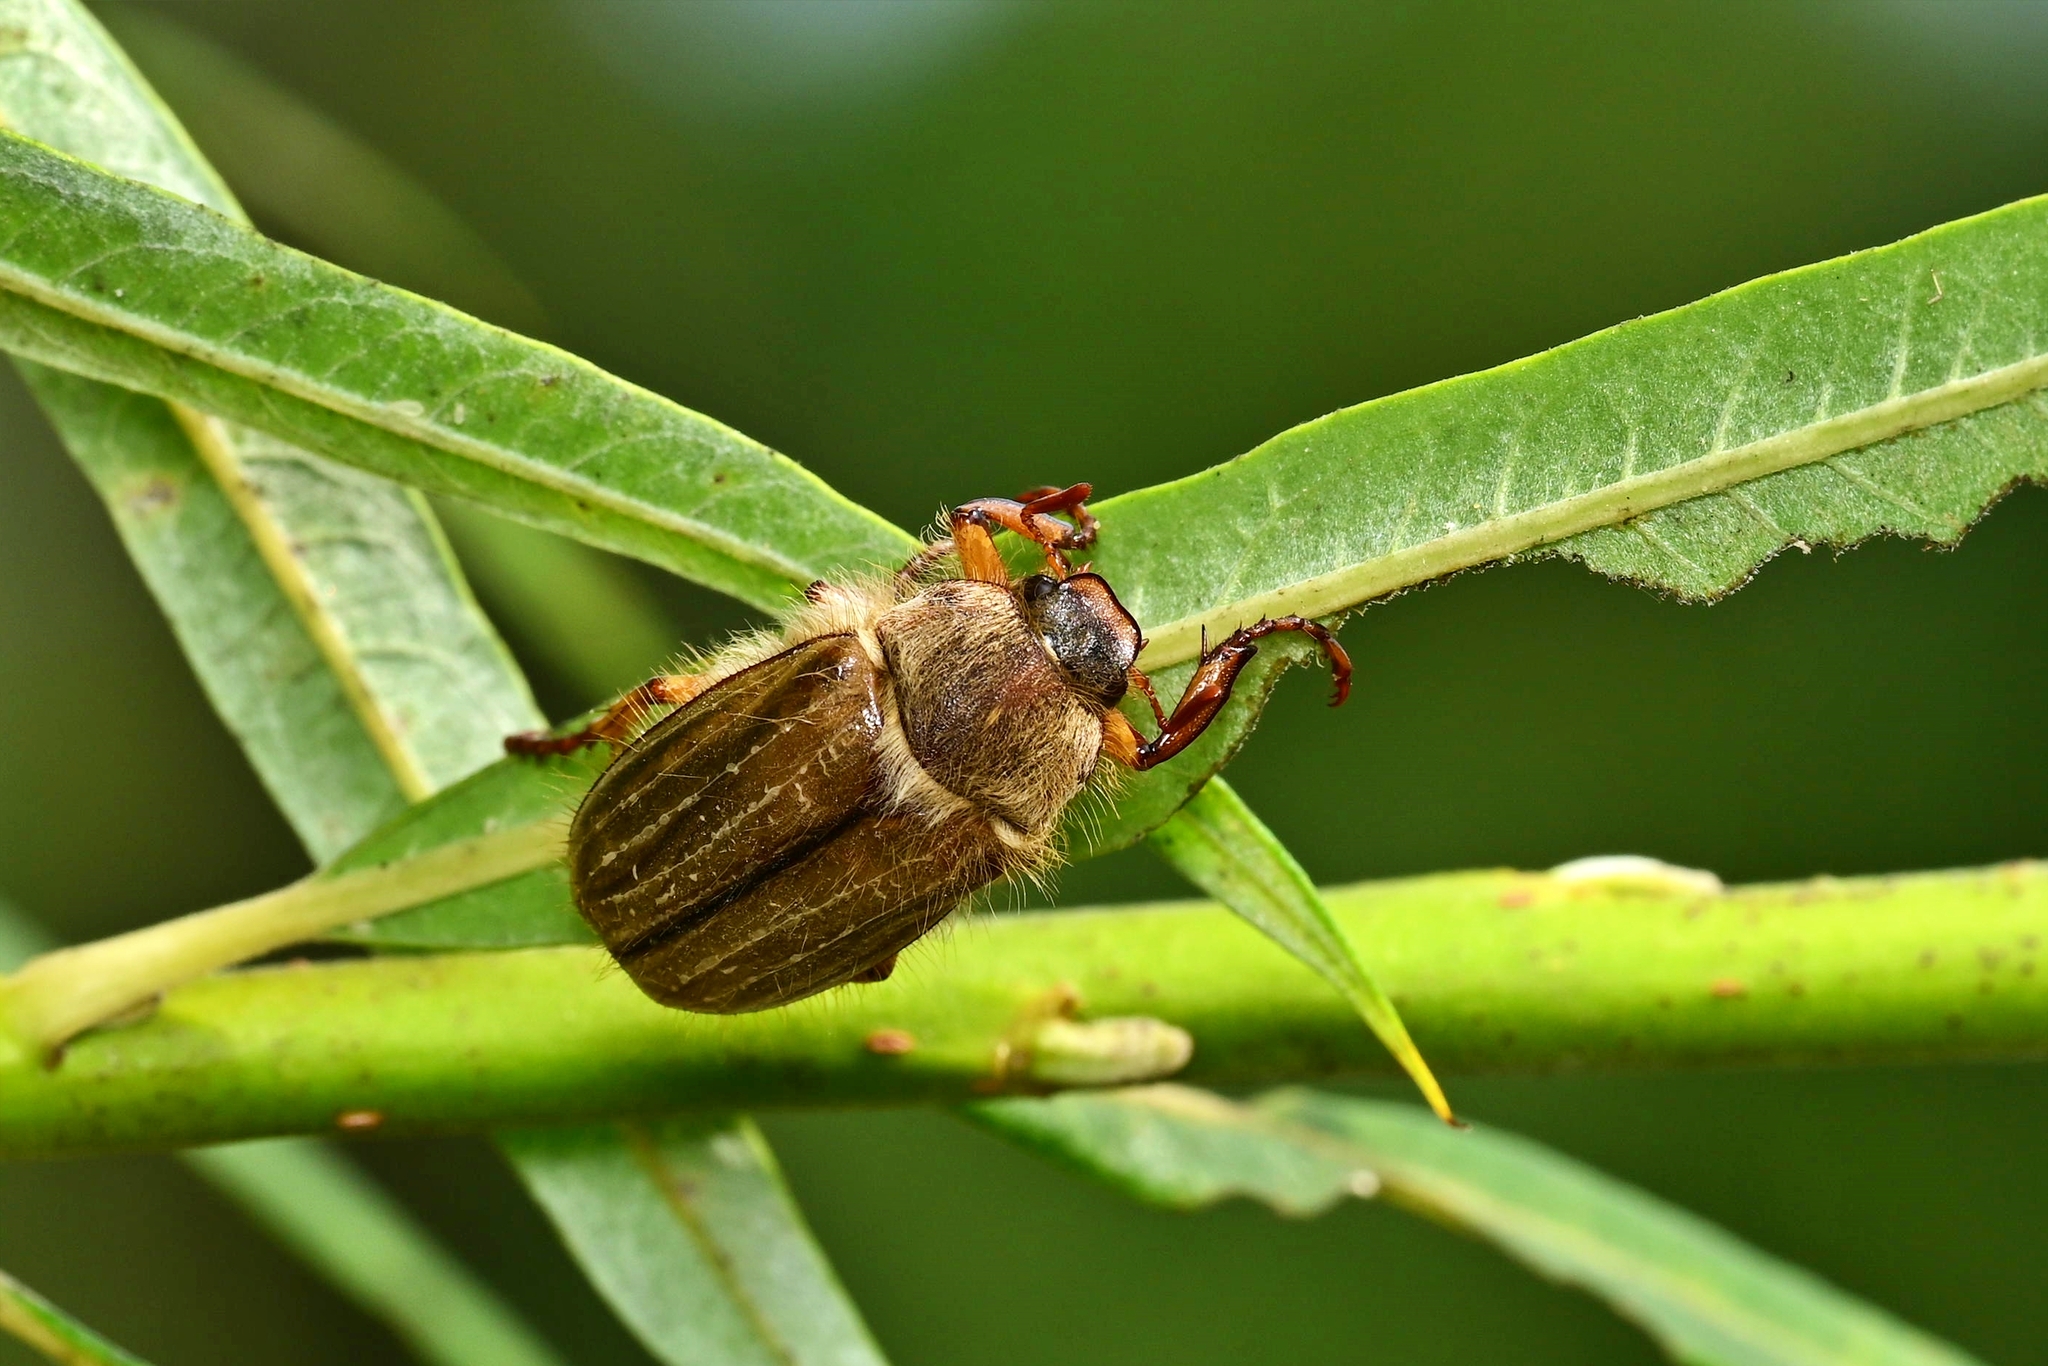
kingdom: Animalia
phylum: Arthropoda
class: Insecta
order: Coleoptera
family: Scarabaeidae
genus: Amphimallon
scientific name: Amphimallon solstitiale
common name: Summer chafer
